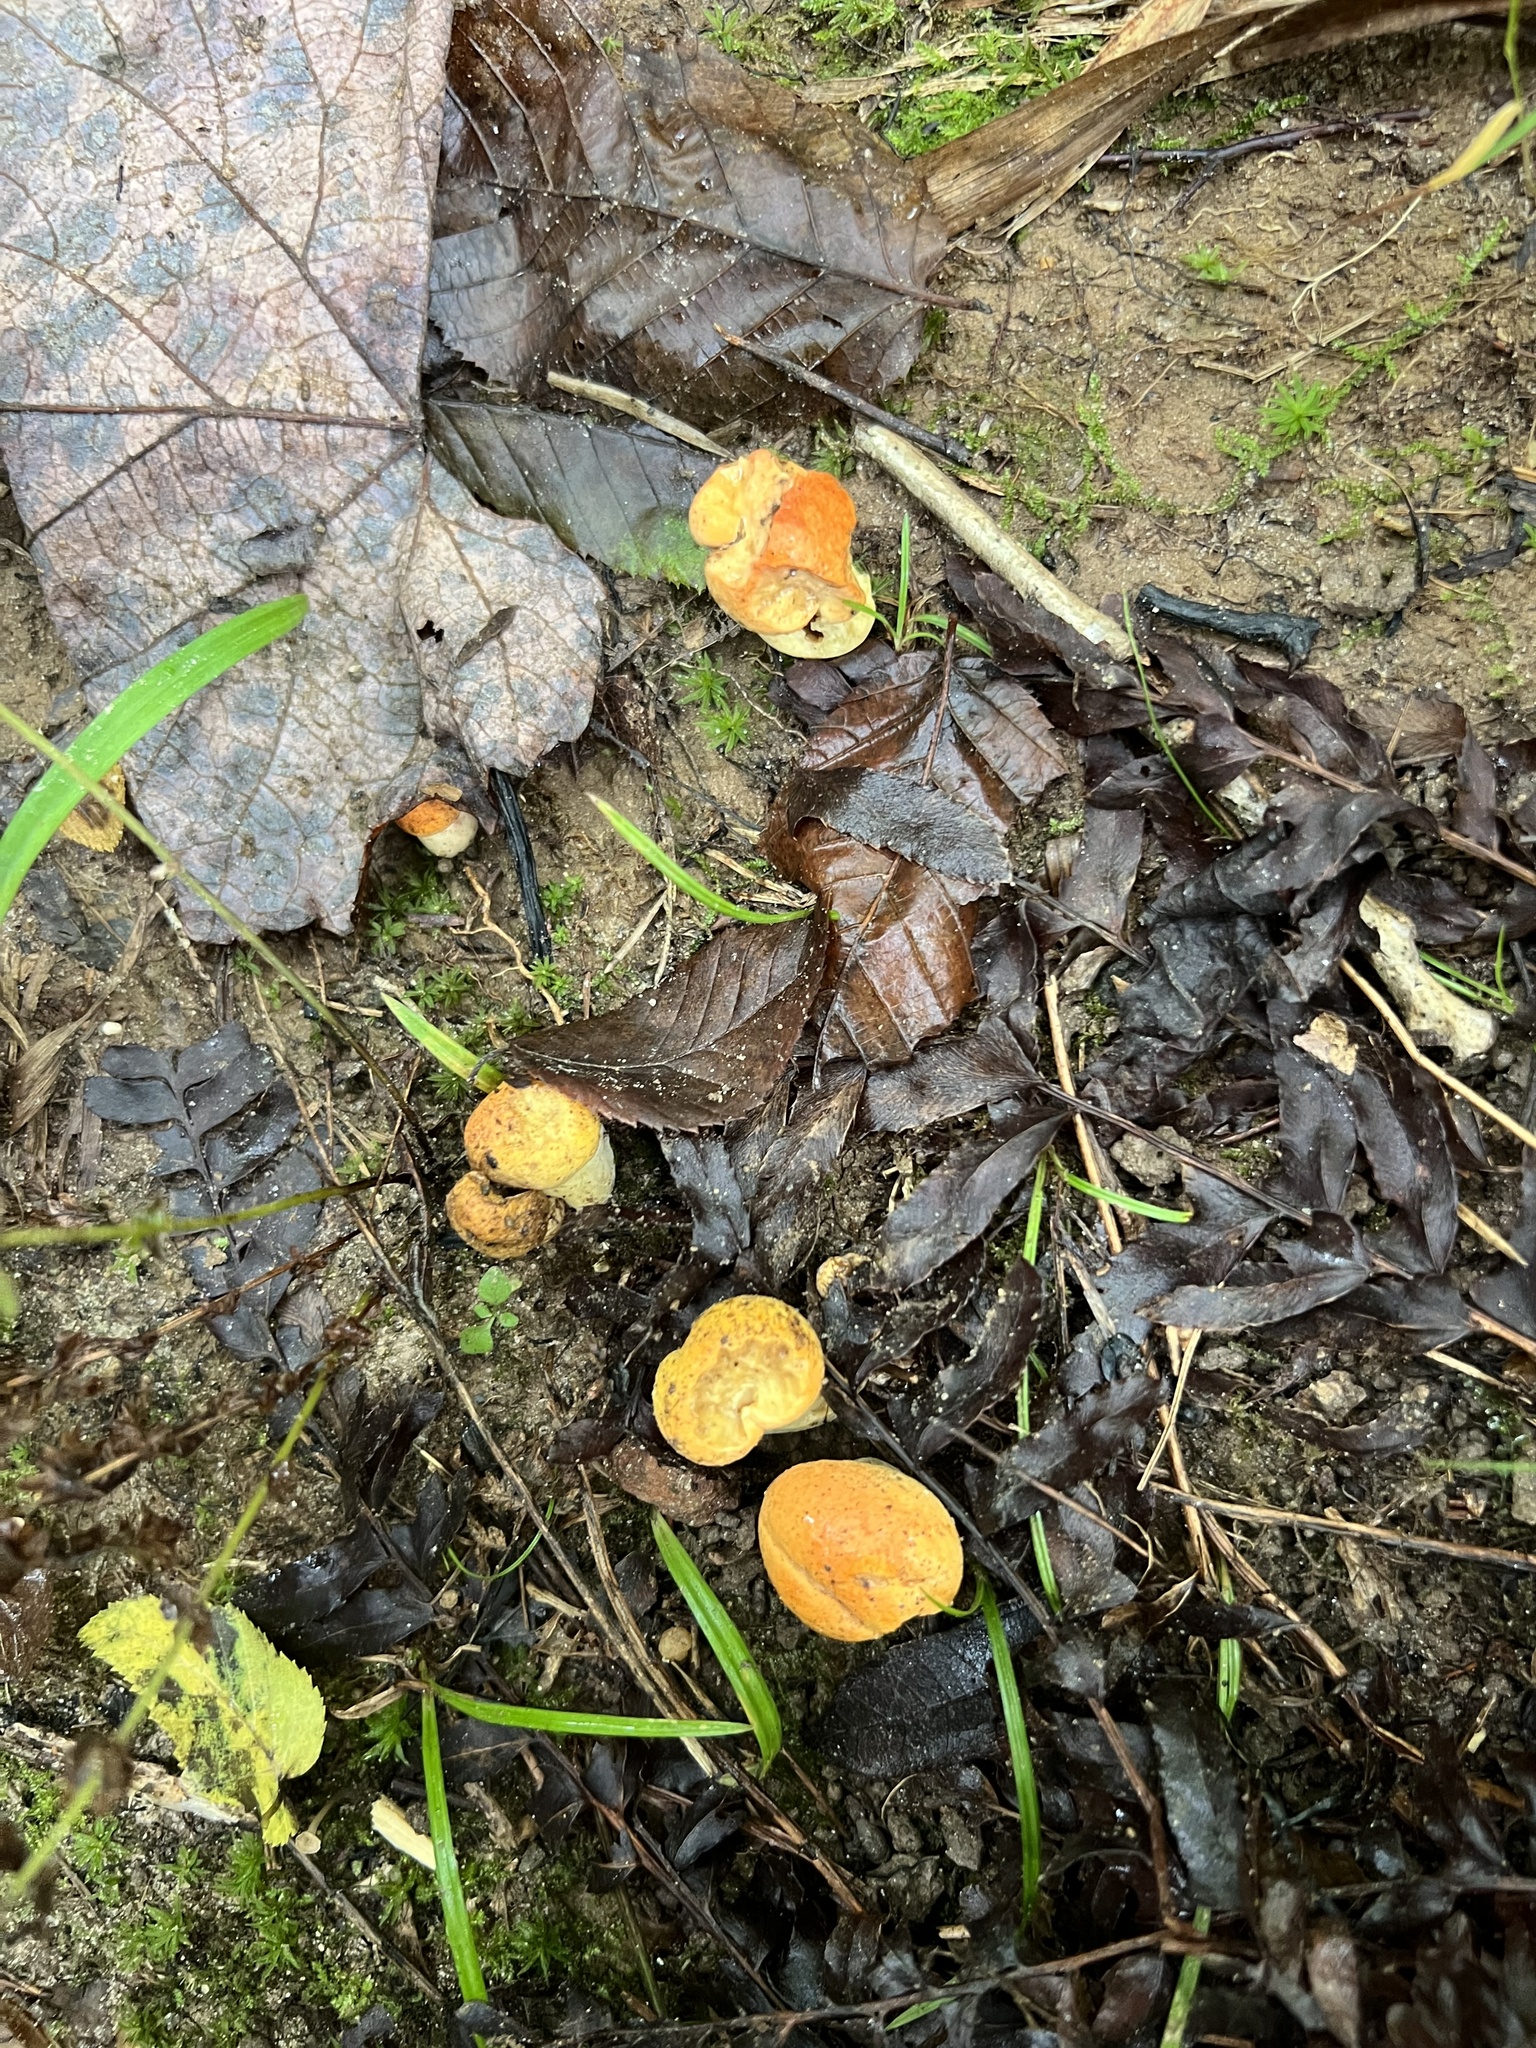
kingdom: Fungi
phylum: Basidiomycota
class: Agaricomycetes
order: Boletales
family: Boletaceae
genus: Tylopilus
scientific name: Tylopilus balloui
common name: Burnt-orange bolete
